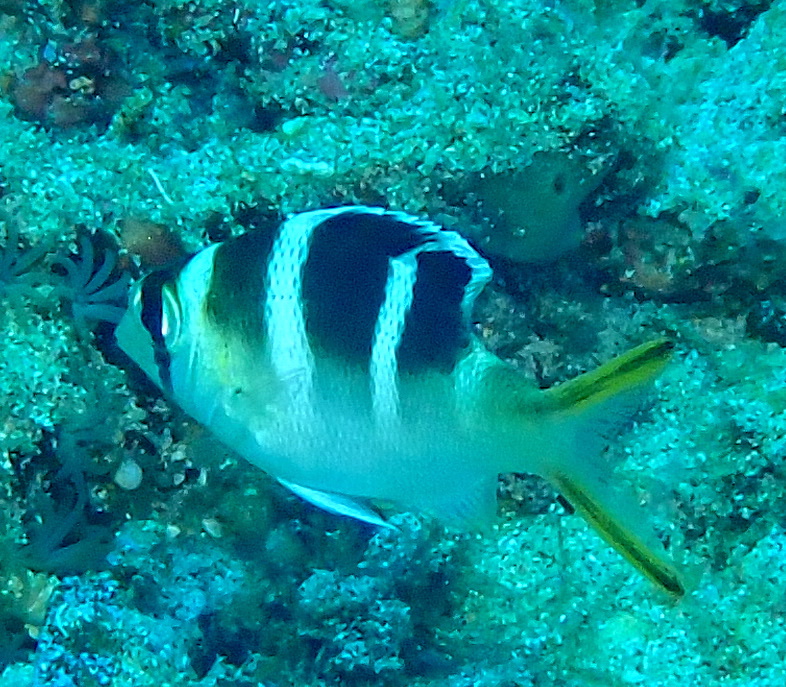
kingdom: Animalia
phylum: Chordata
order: Perciformes
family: Lethrinidae
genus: Monotaxis
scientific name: Monotaxis grandoculis
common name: Bigeye emperor
